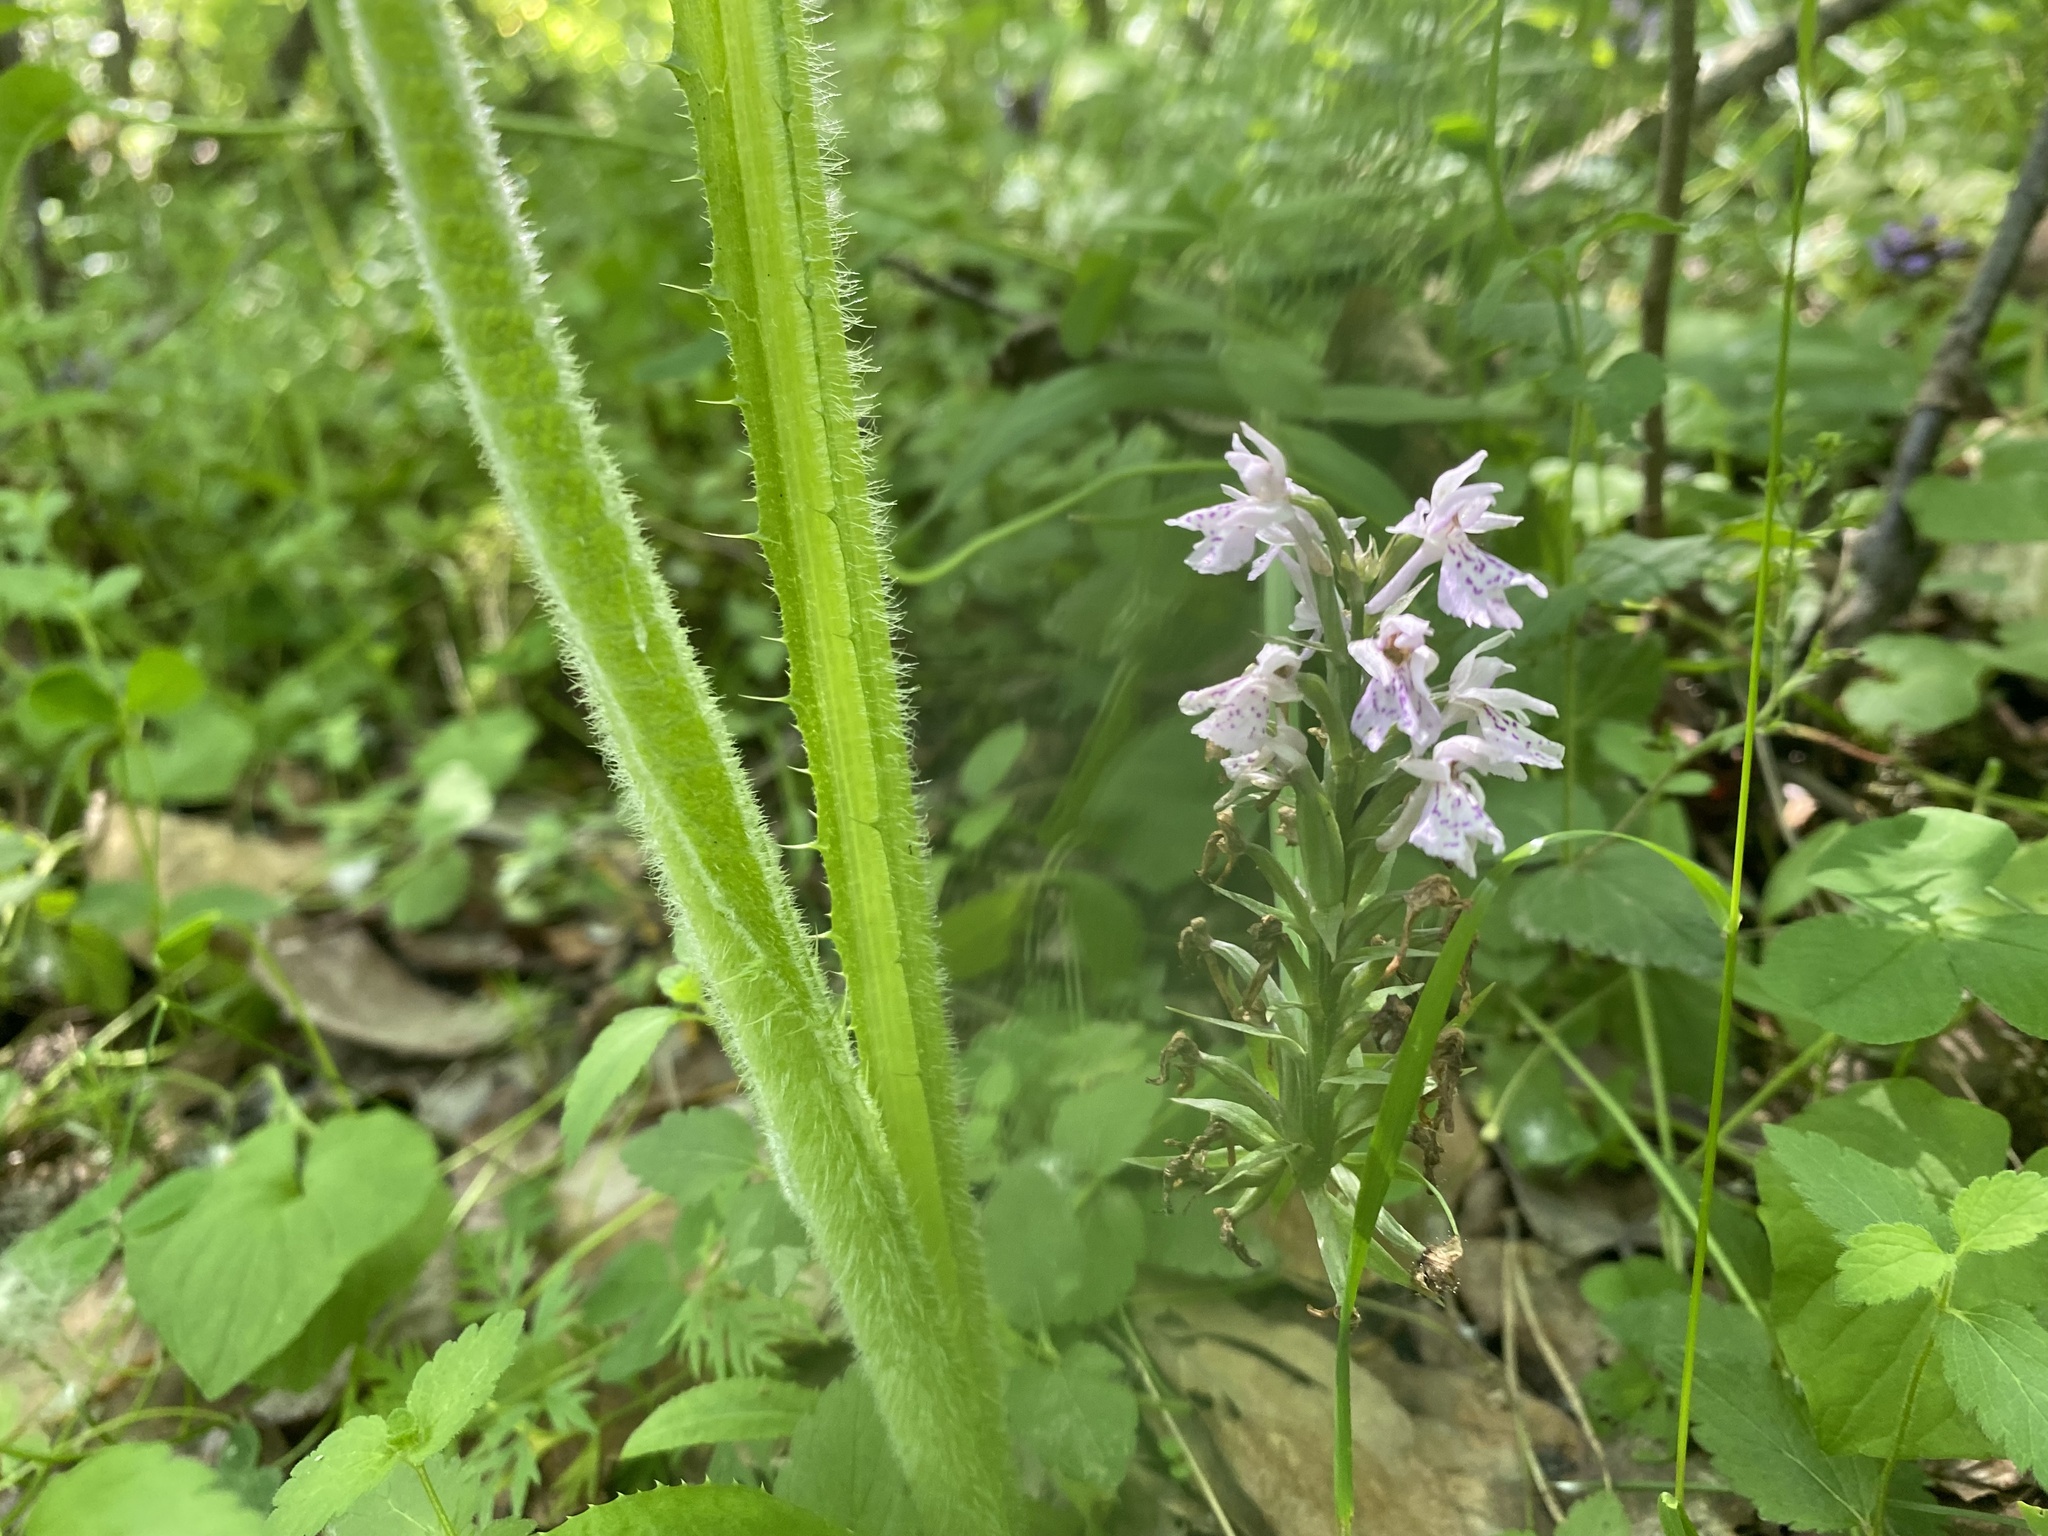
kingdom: Plantae
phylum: Tracheophyta
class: Liliopsida
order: Asparagales
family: Orchidaceae
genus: Dactylorhiza
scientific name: Dactylorhiza maculata
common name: Heath spotted-orchid
